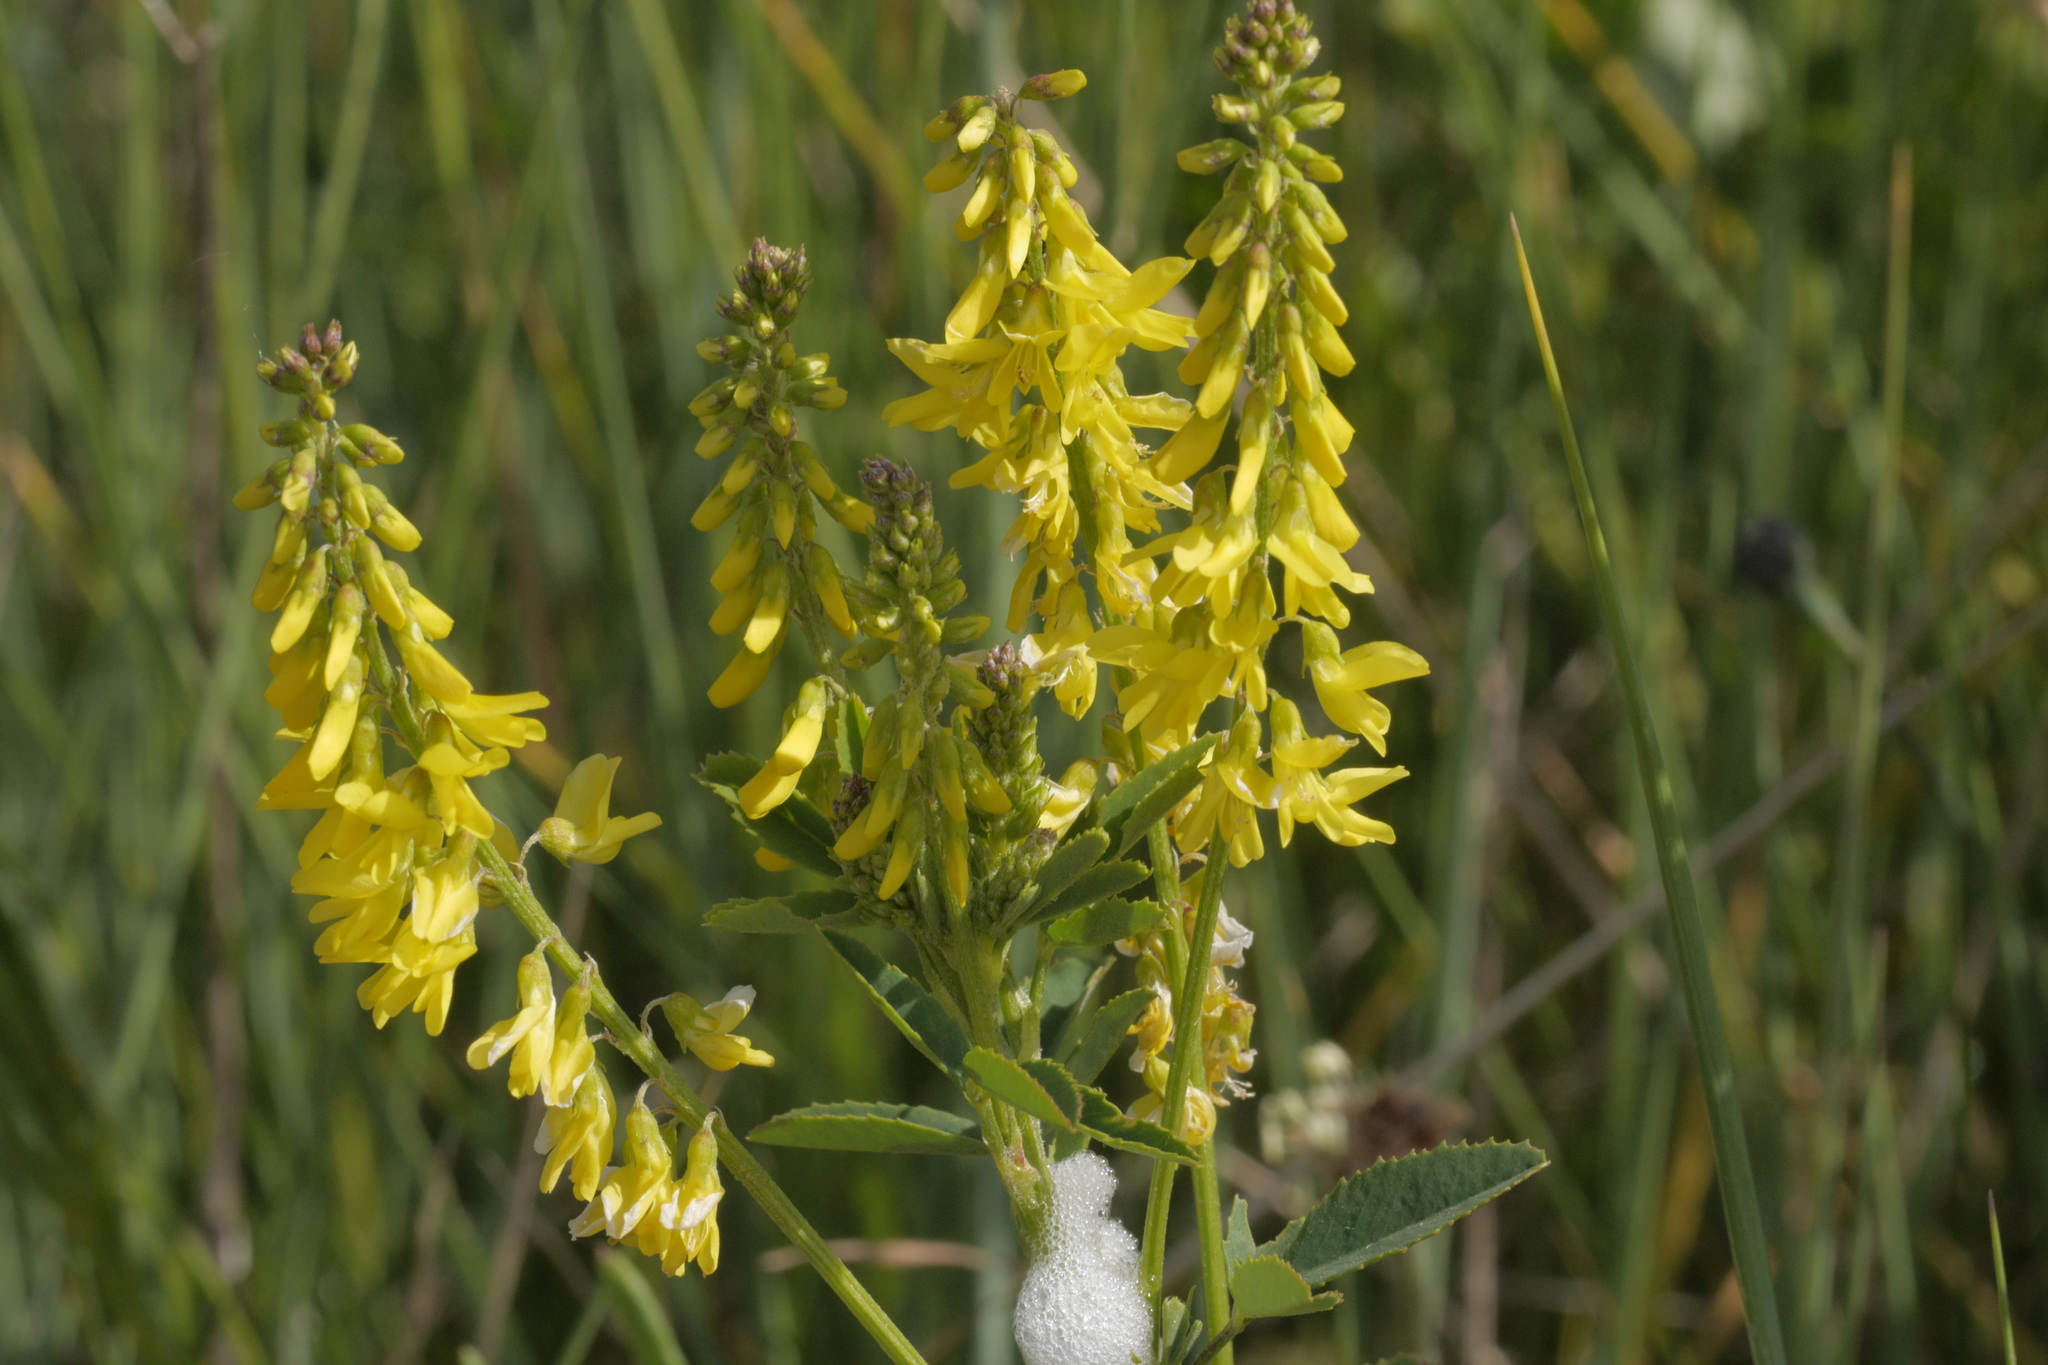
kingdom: Plantae
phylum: Tracheophyta
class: Magnoliopsida
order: Fabales
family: Fabaceae
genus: Melilotus
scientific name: Melilotus officinalis
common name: Sweetclover
